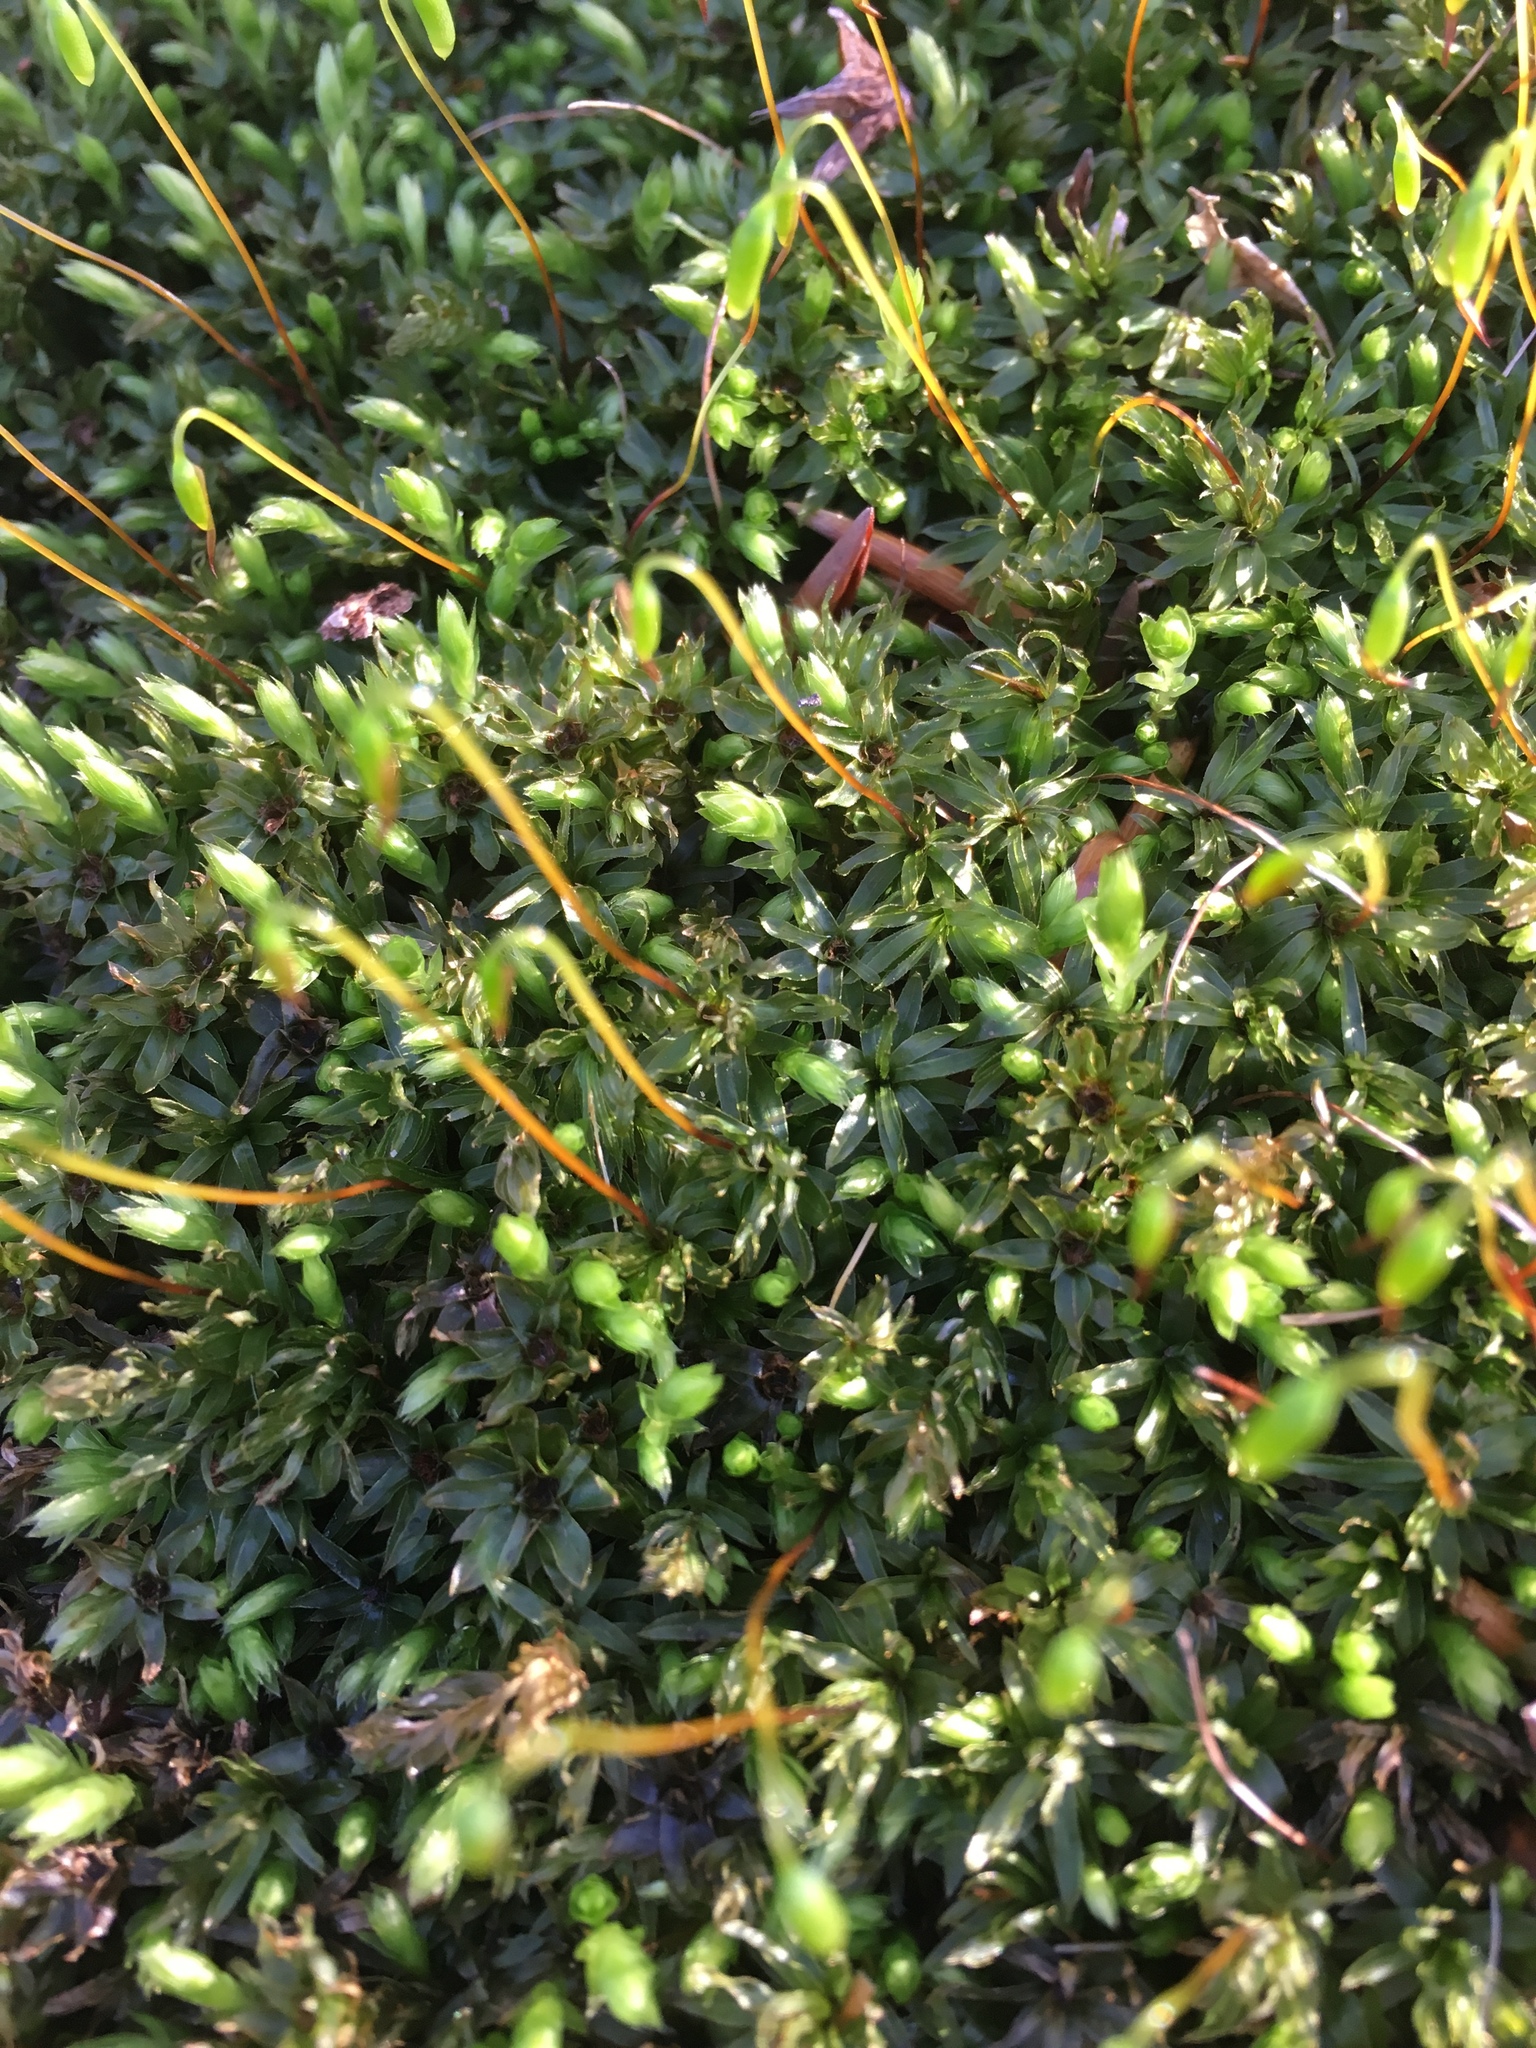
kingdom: Plantae
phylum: Bryophyta
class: Bryopsida
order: Bryales
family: Mniaceae
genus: Mnium
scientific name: Mnium hornum
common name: Swan's-neck leafy moss
